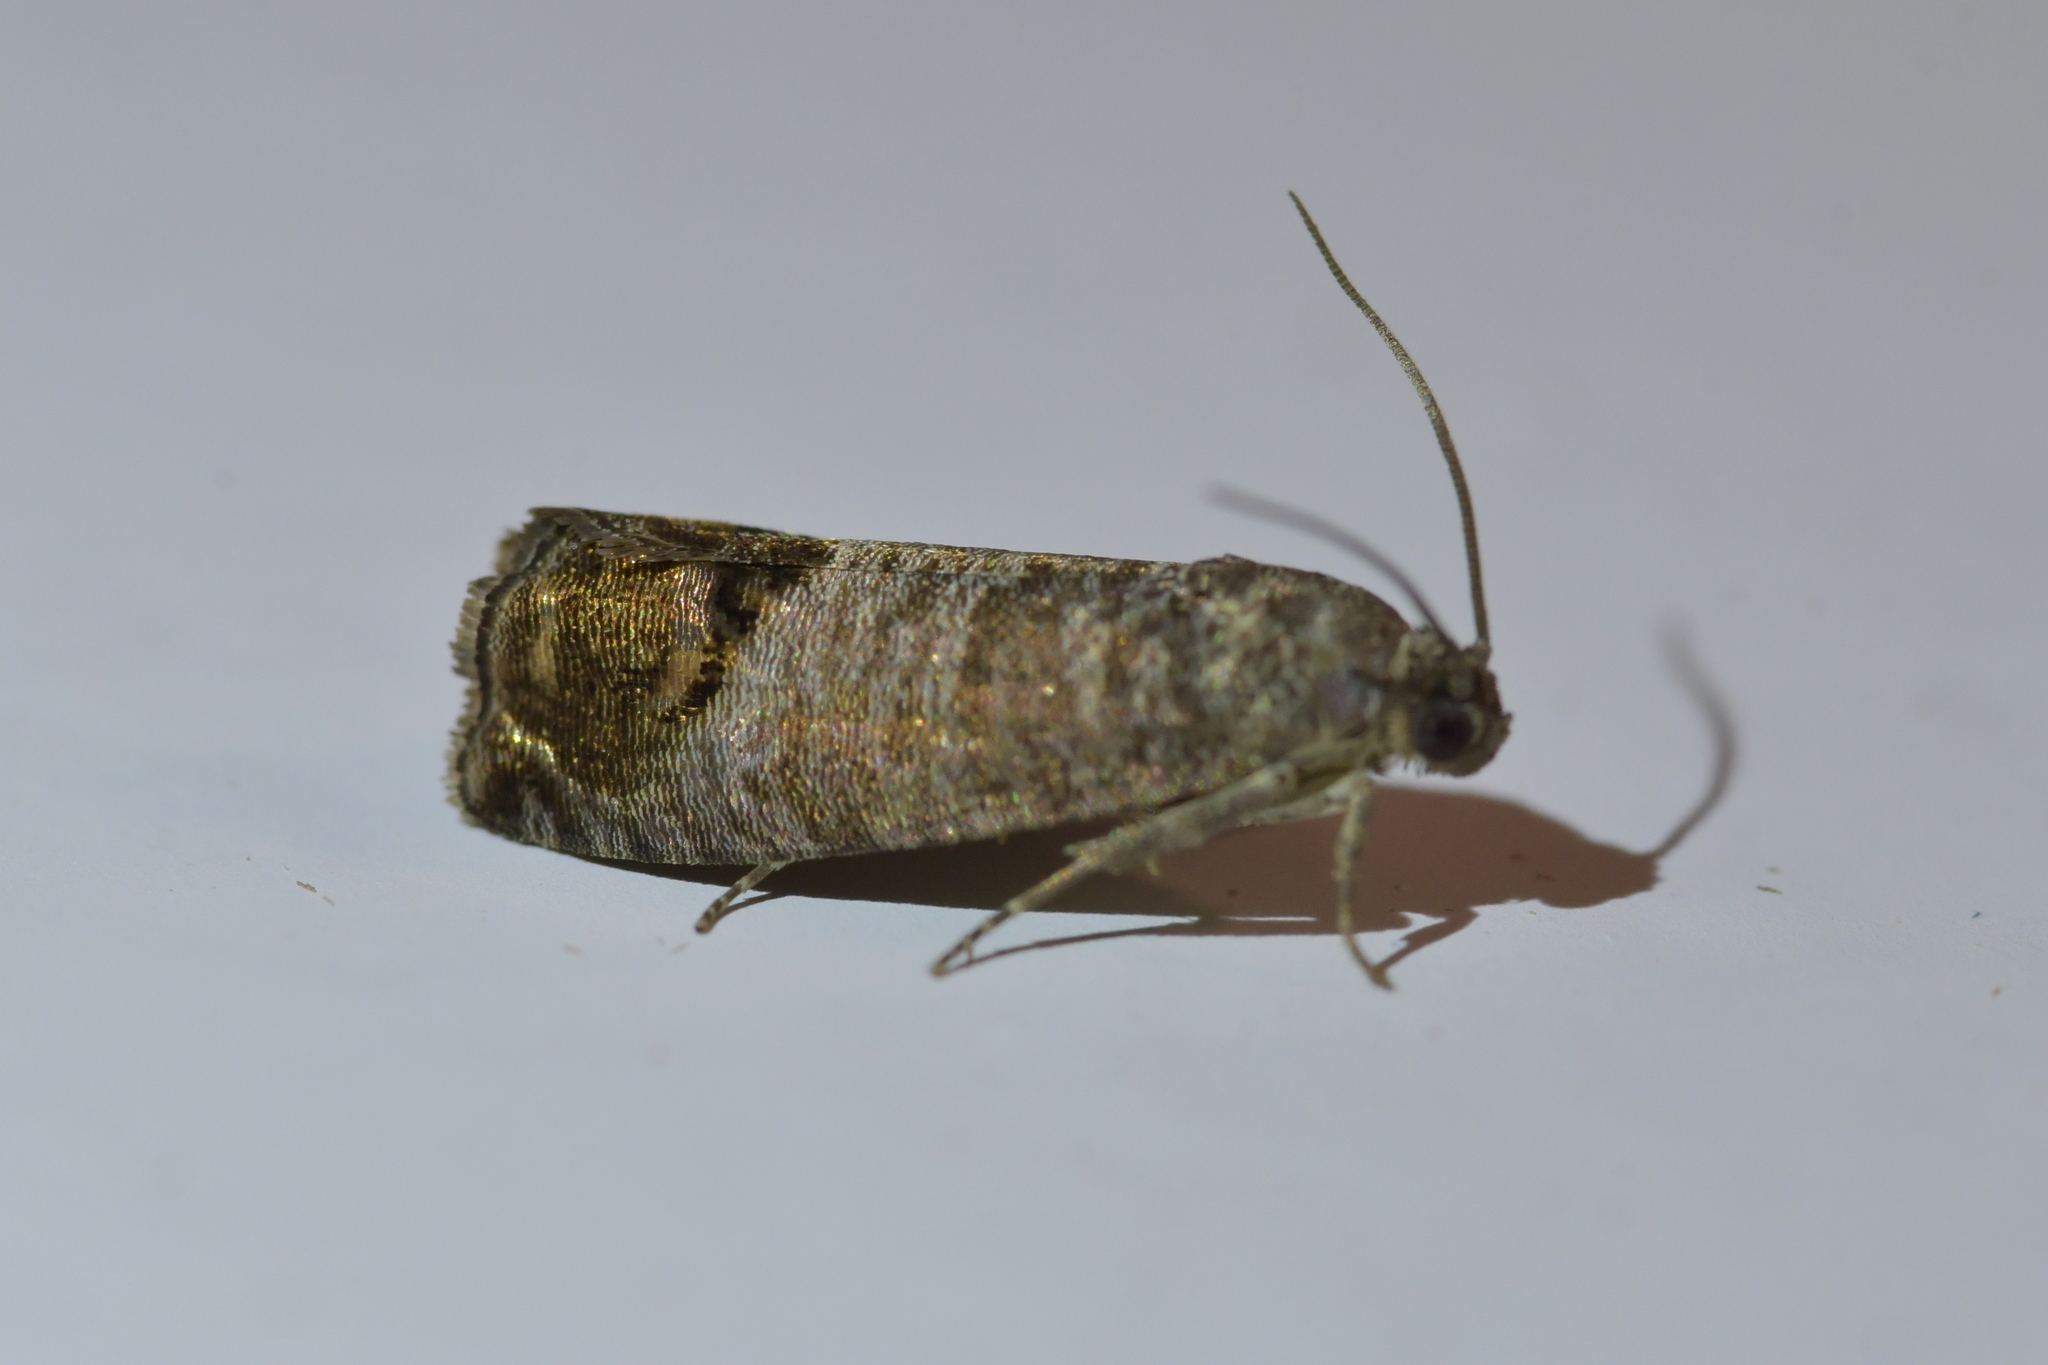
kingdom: Animalia
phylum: Arthropoda
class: Insecta
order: Lepidoptera
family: Tortricidae
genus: Cydia
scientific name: Cydia pomonella
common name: Codling moth
